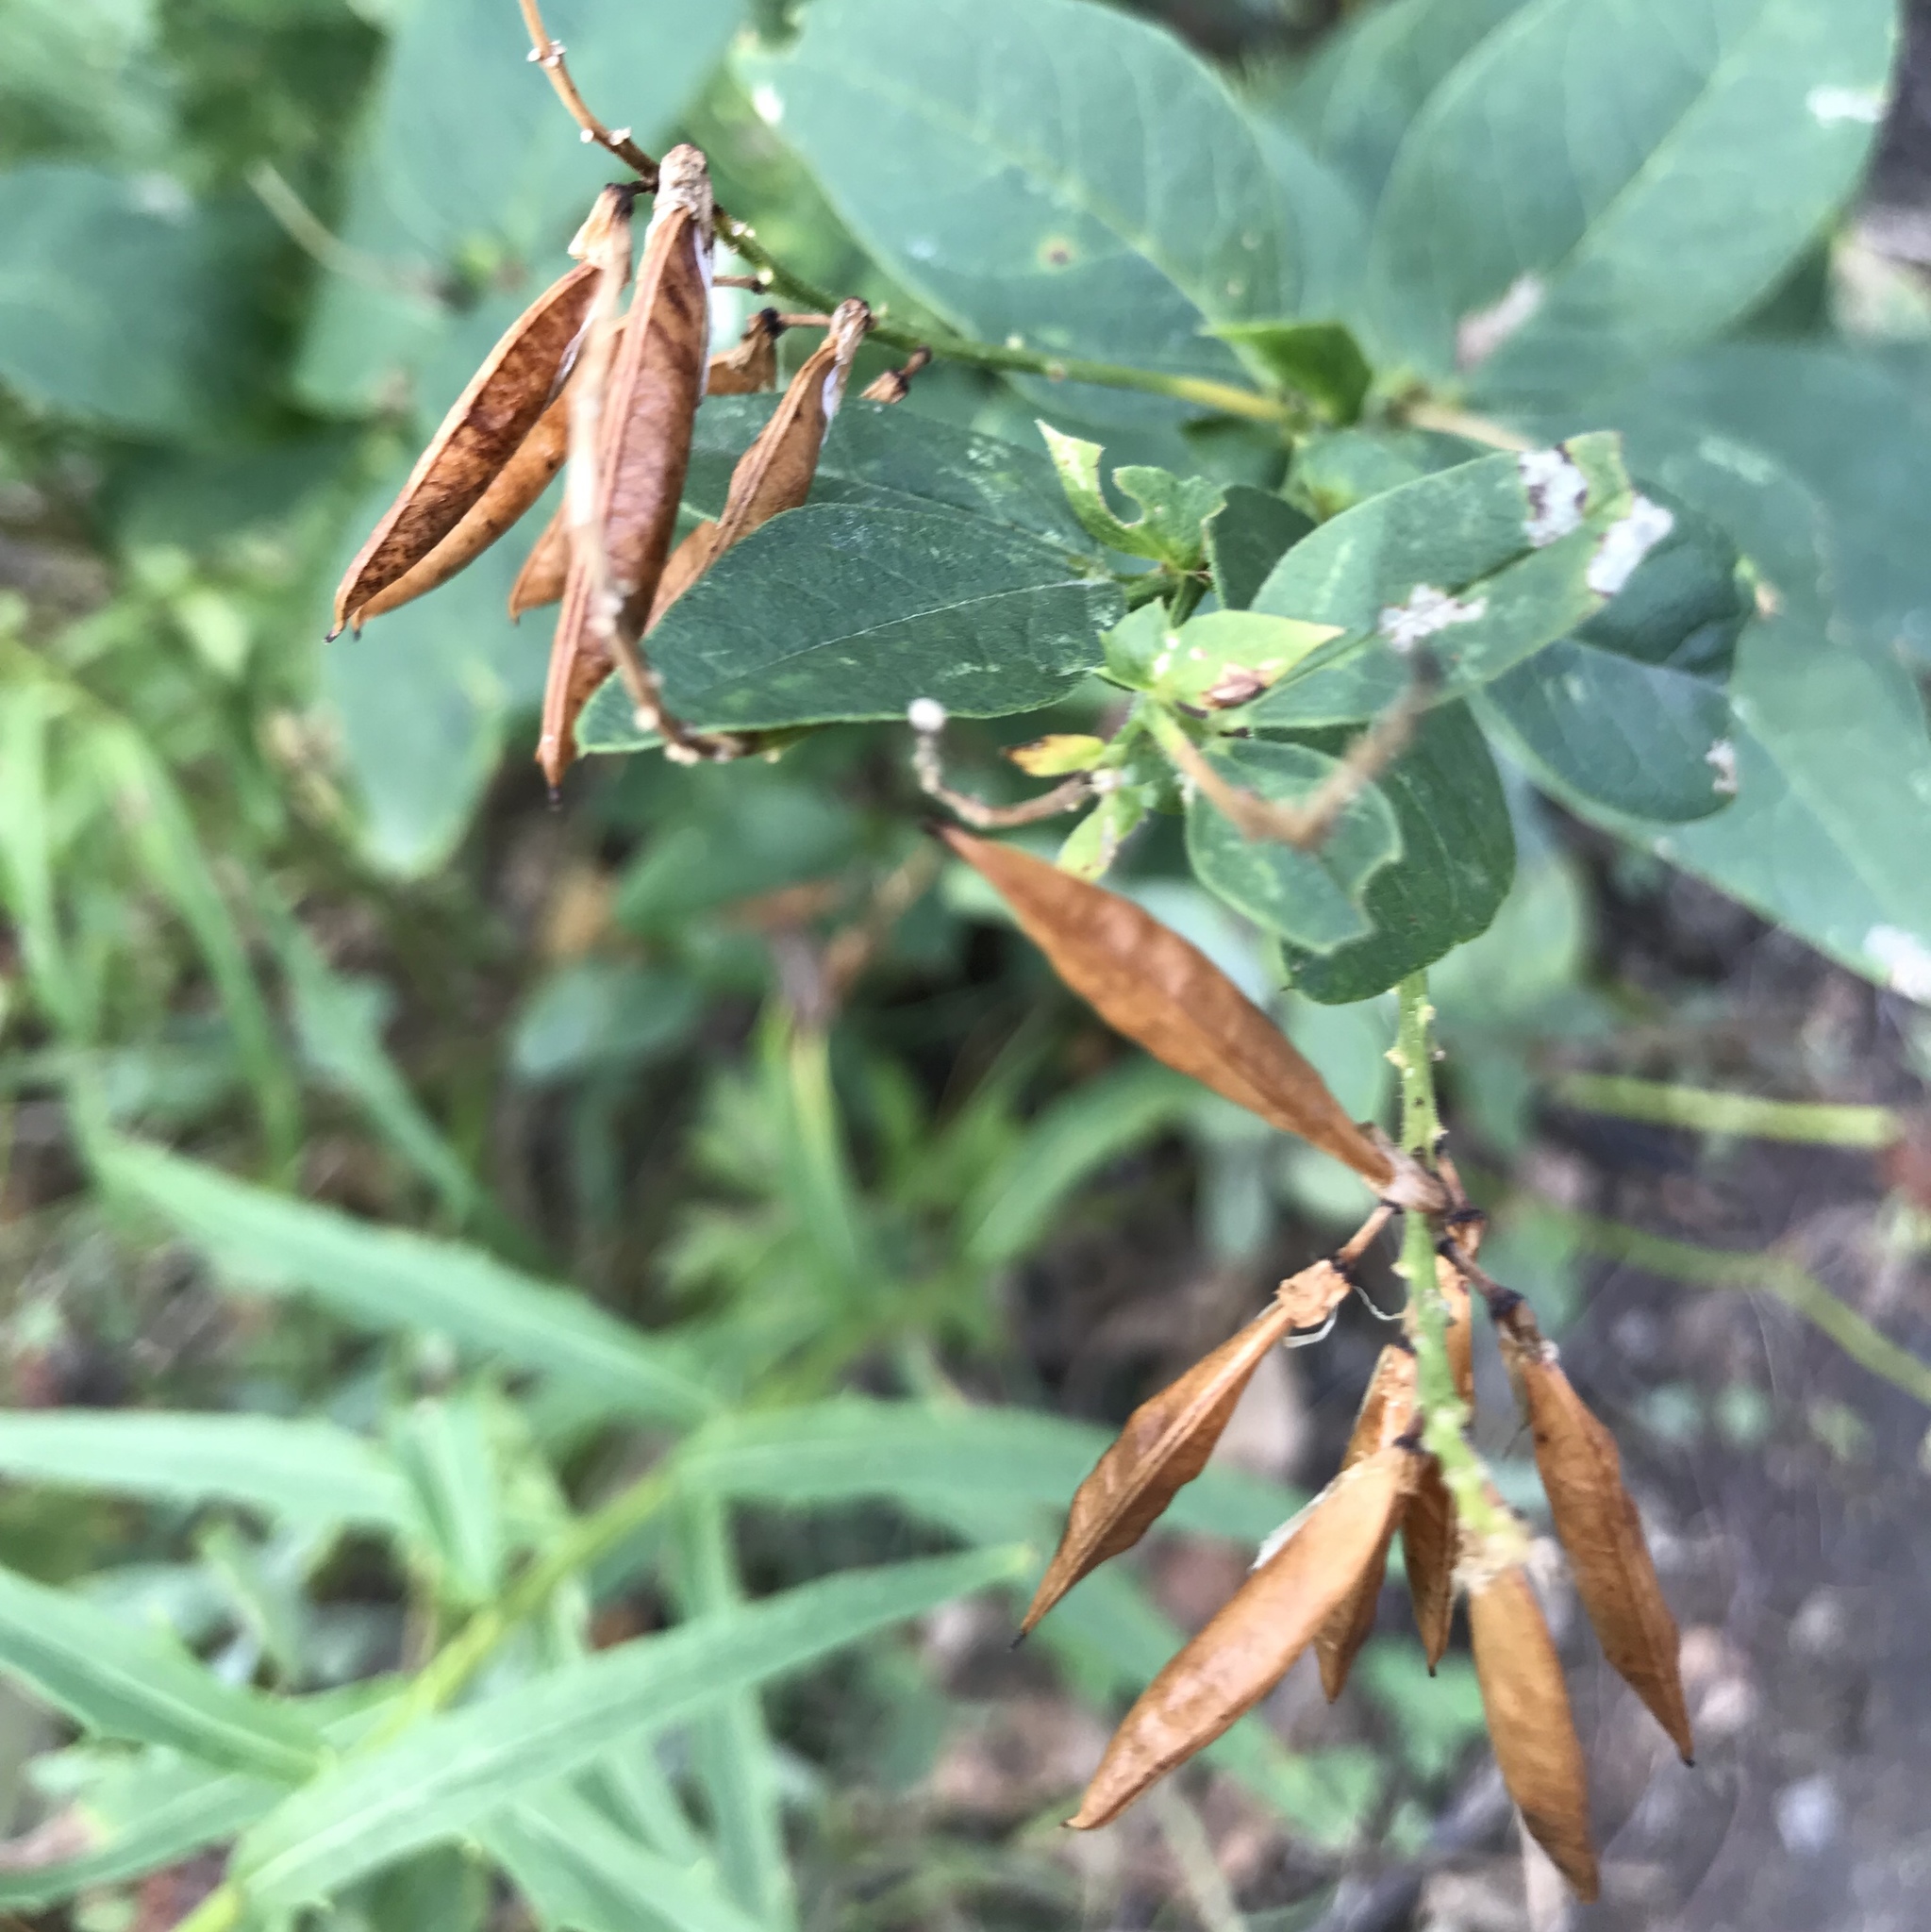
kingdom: Plantae
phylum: Tracheophyta
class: Magnoliopsida
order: Fabales
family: Fabaceae
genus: Vicia
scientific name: Vicia unijuga
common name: Two-leaf vetch
